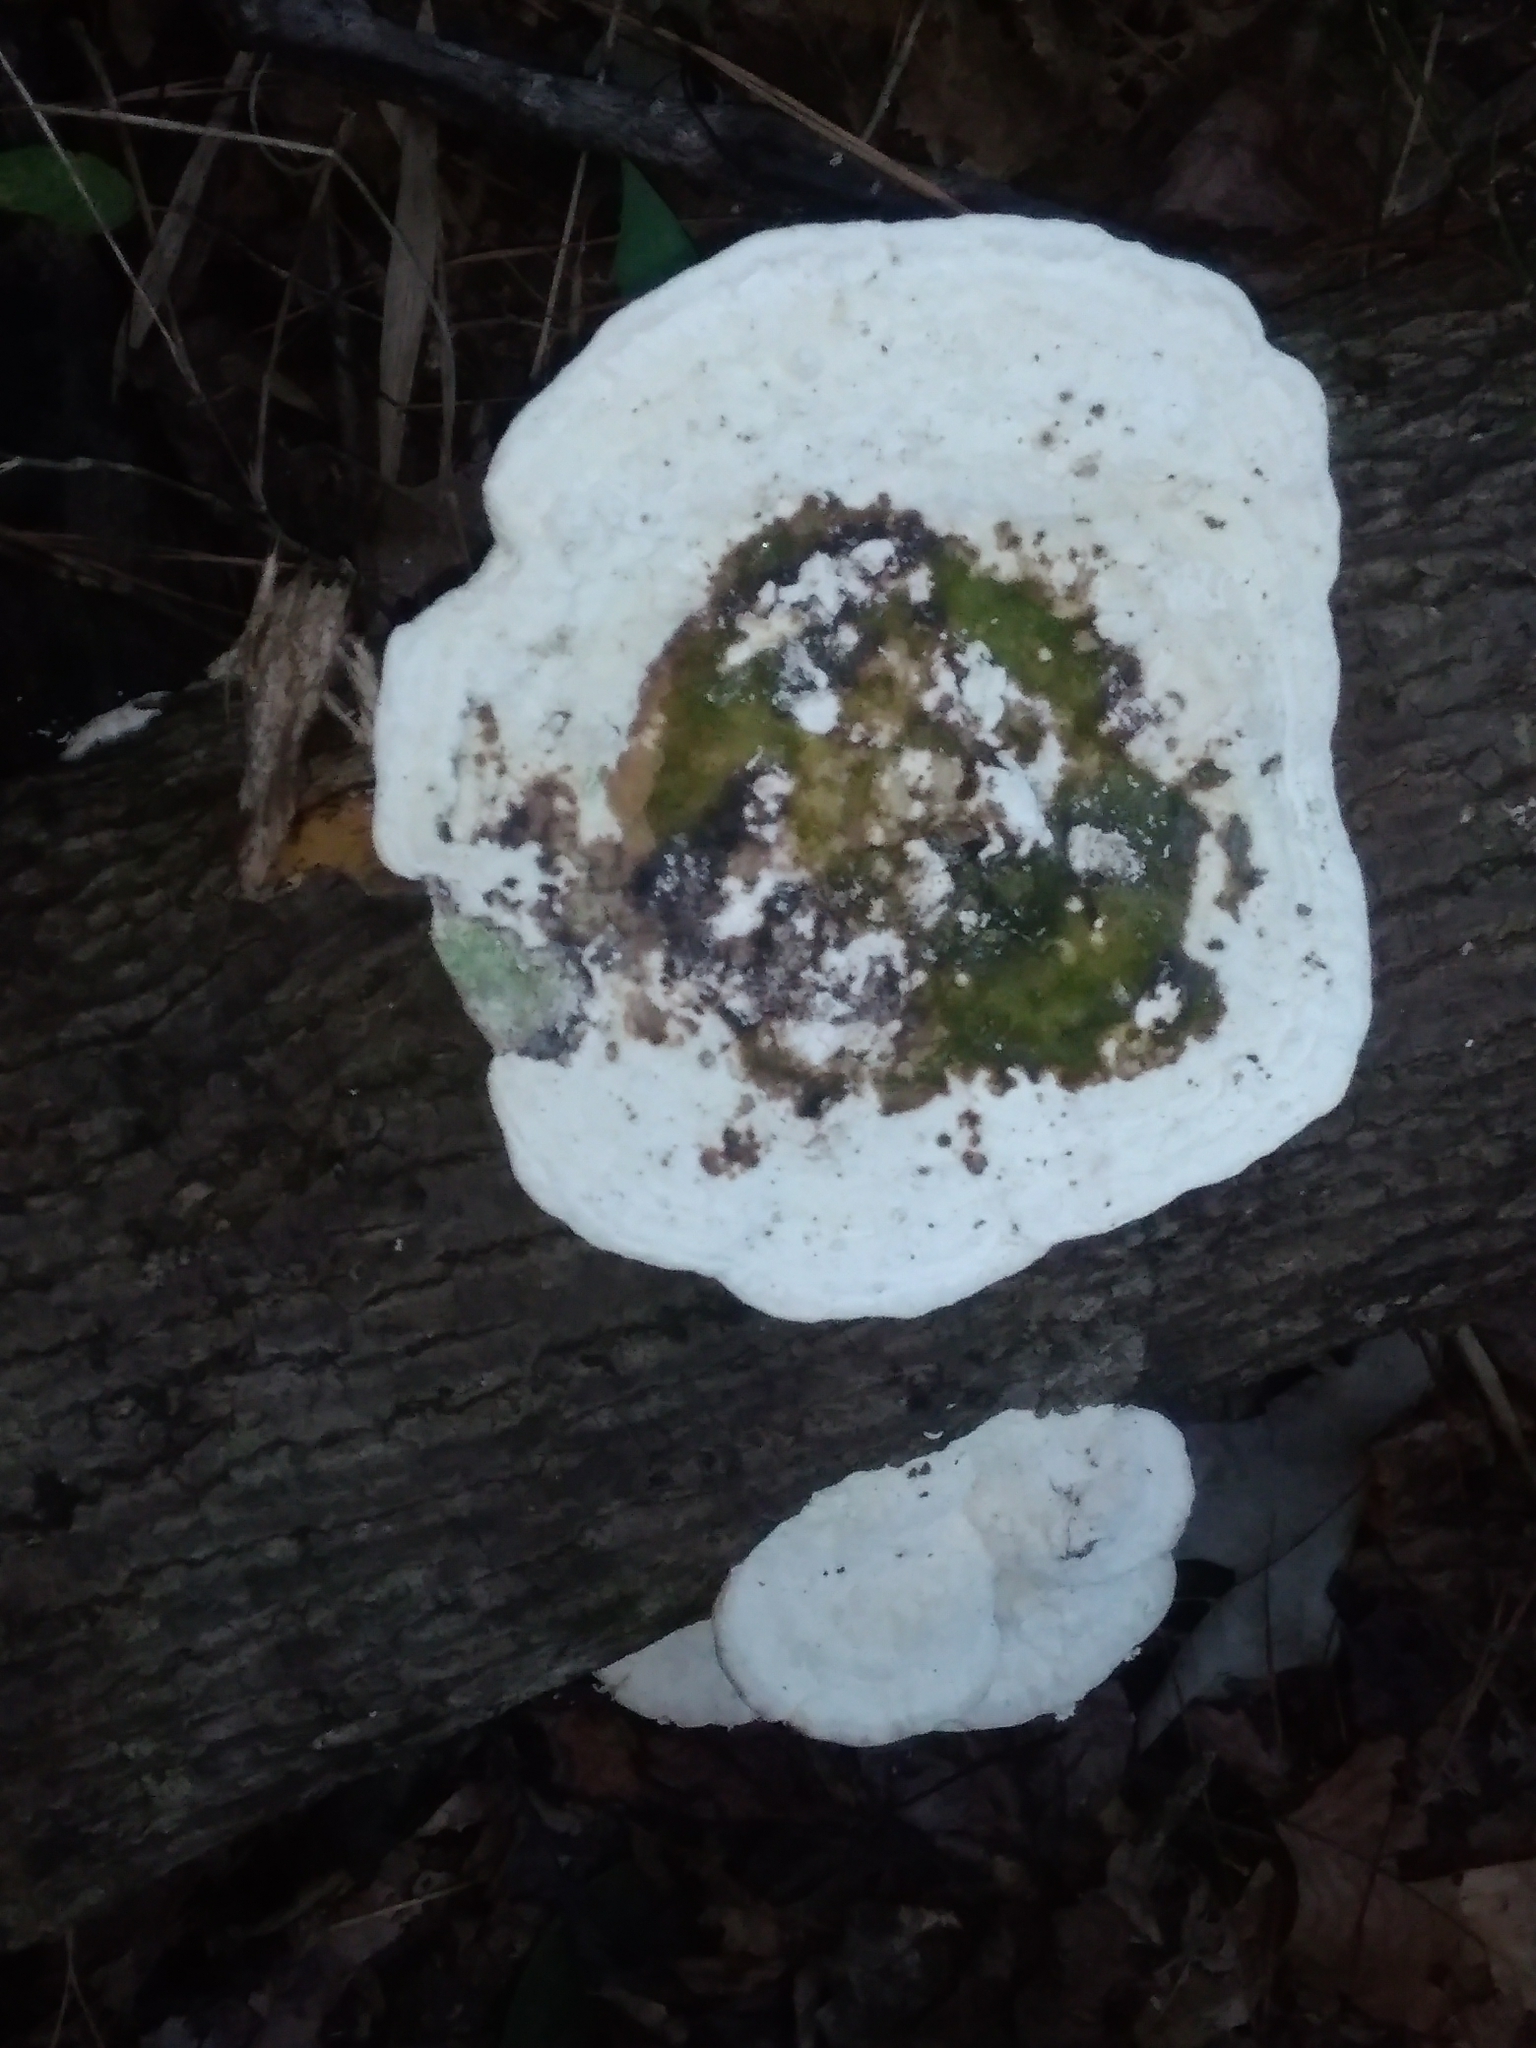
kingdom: Fungi
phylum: Basidiomycota
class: Agaricomycetes
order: Polyporales
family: Polyporaceae
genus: Trametes
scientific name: Trametes gibbosa
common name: Lumpy bracket
